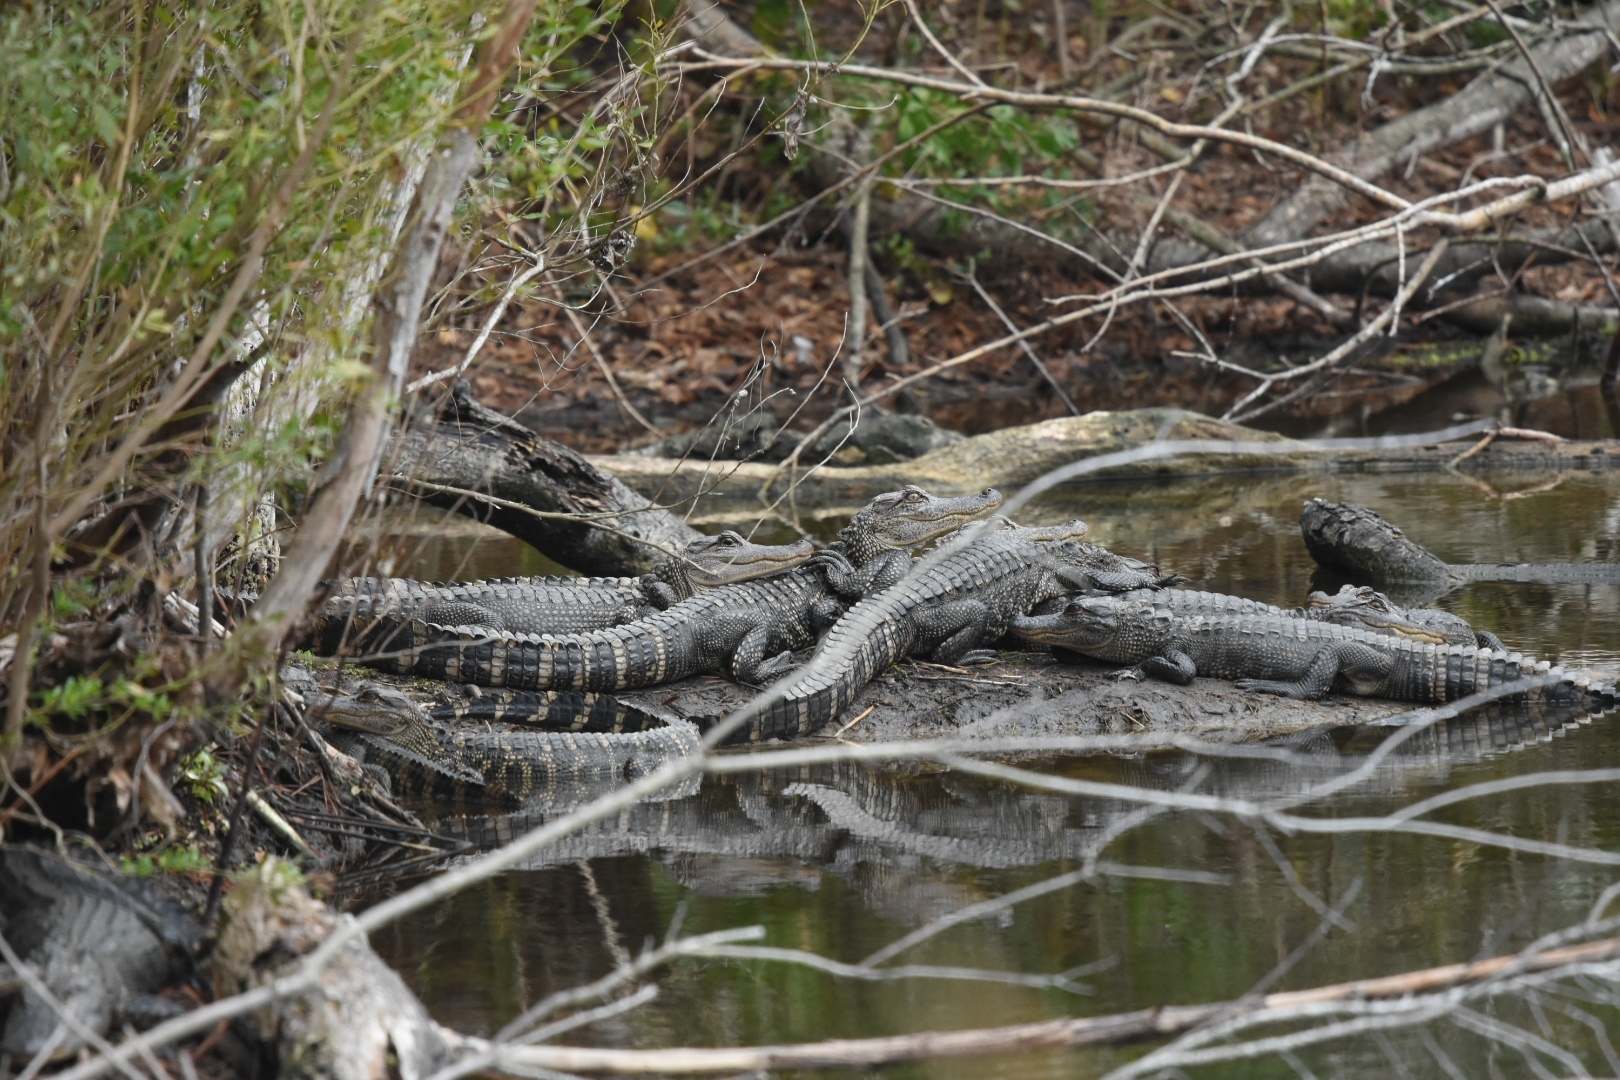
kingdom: Animalia
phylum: Chordata
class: Crocodylia
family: Alligatoridae
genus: Alligator
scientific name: Alligator mississippiensis
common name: American alligator
